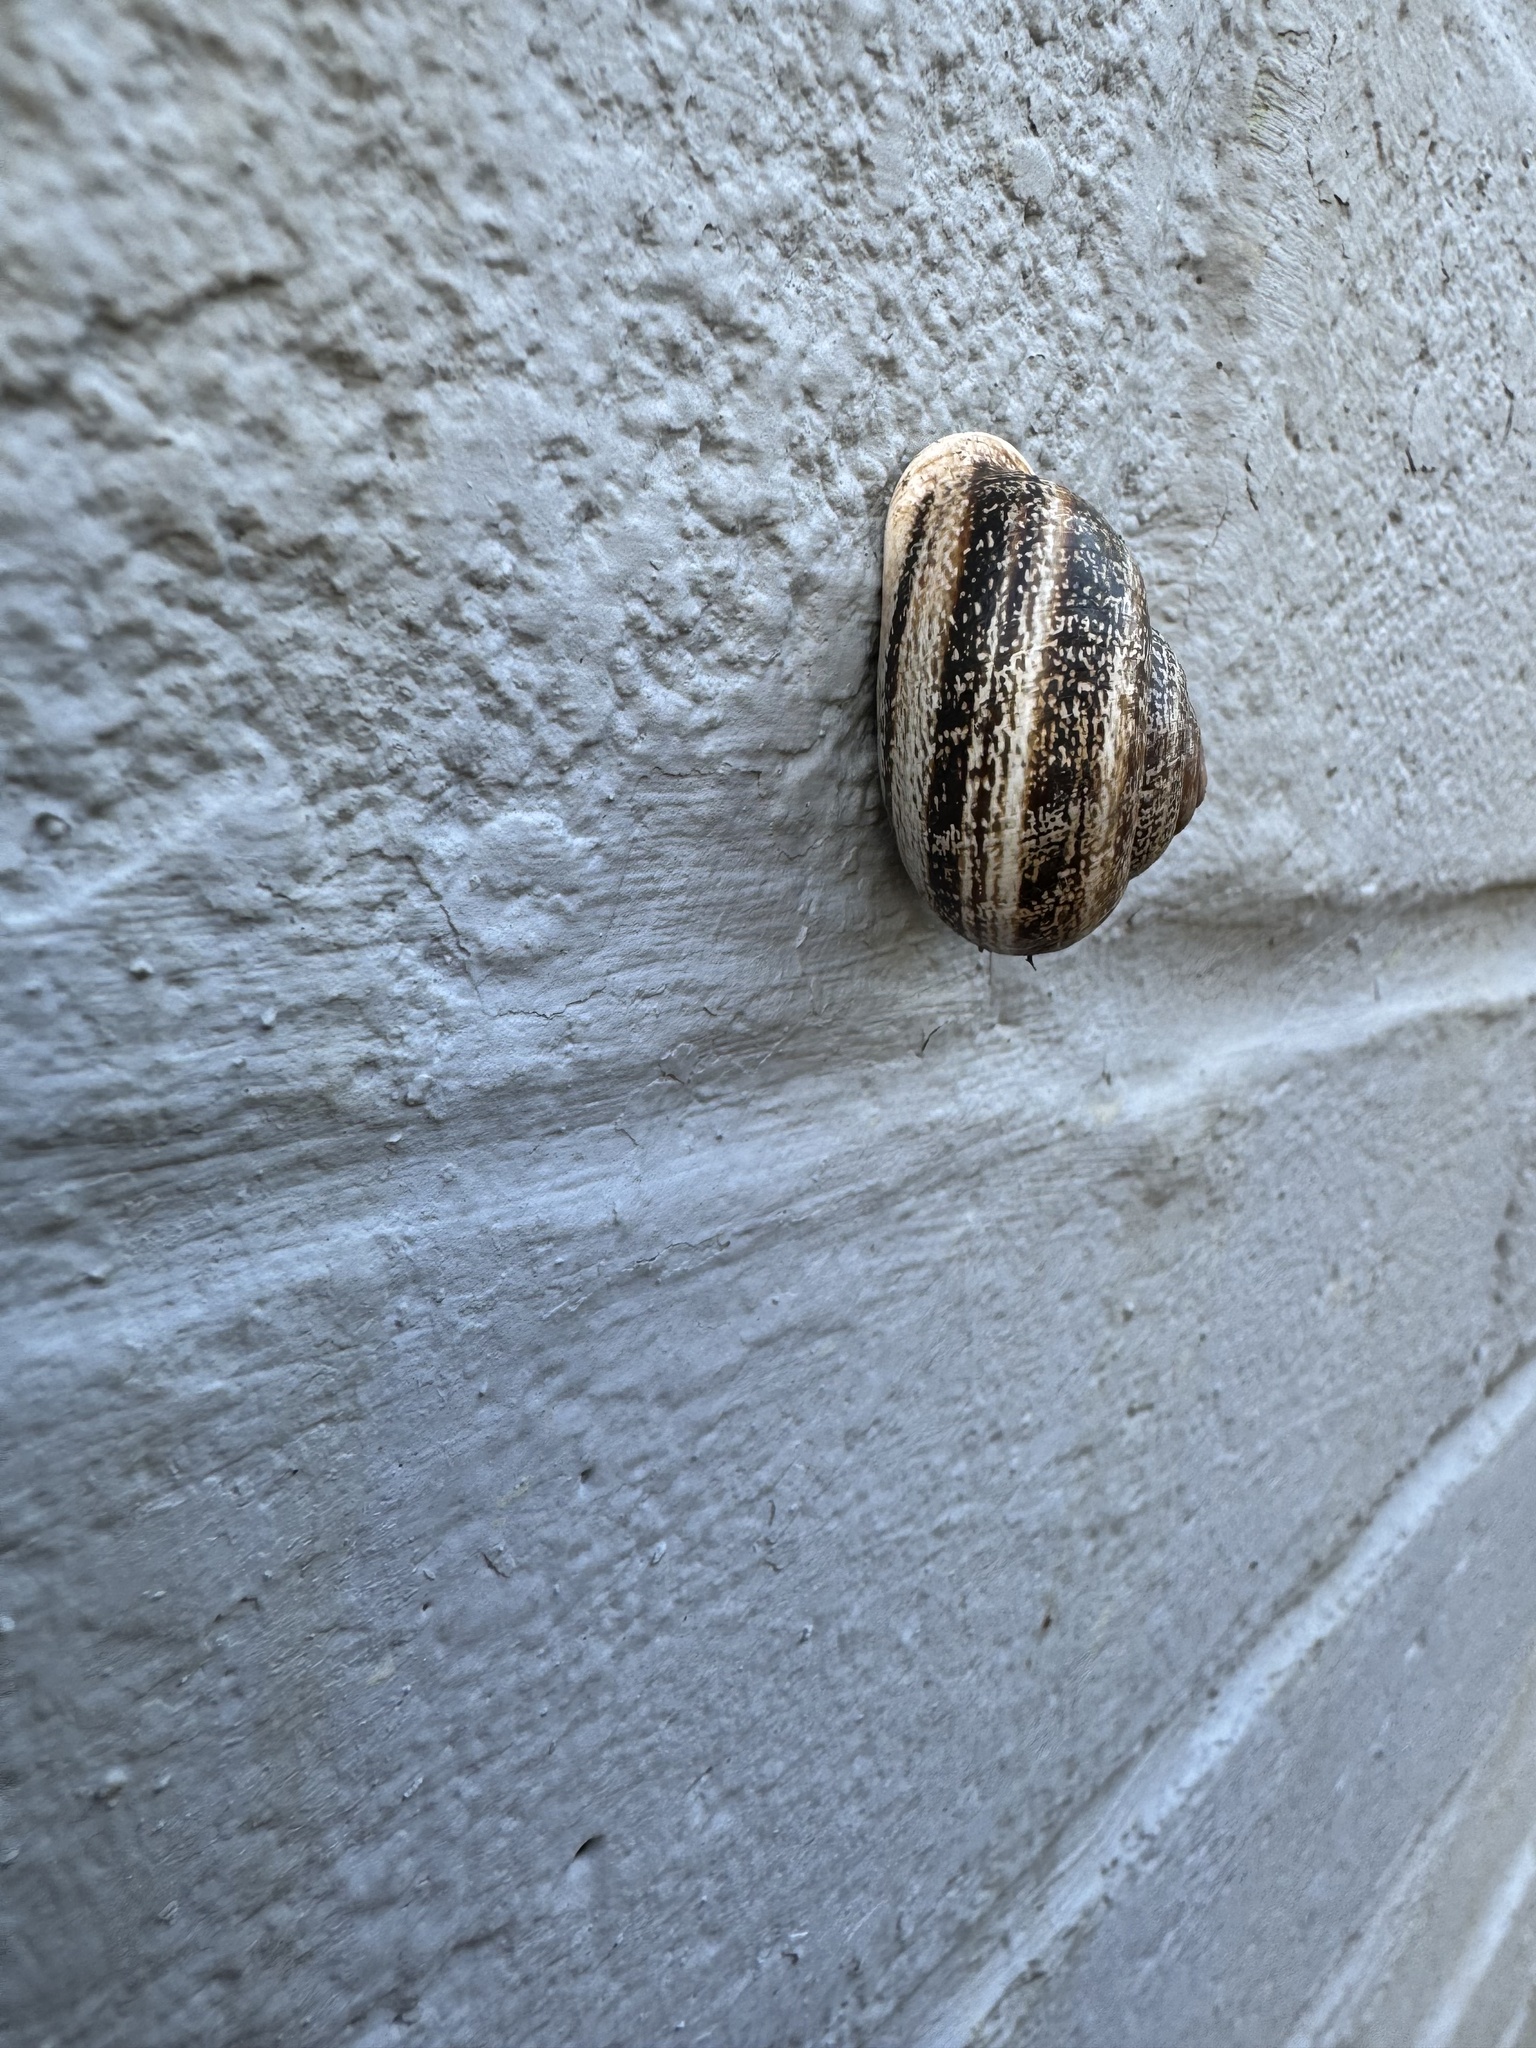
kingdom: Animalia
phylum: Mollusca
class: Gastropoda
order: Stylommatophora
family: Helicidae
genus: Otala
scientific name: Otala lactea
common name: Milk snail
